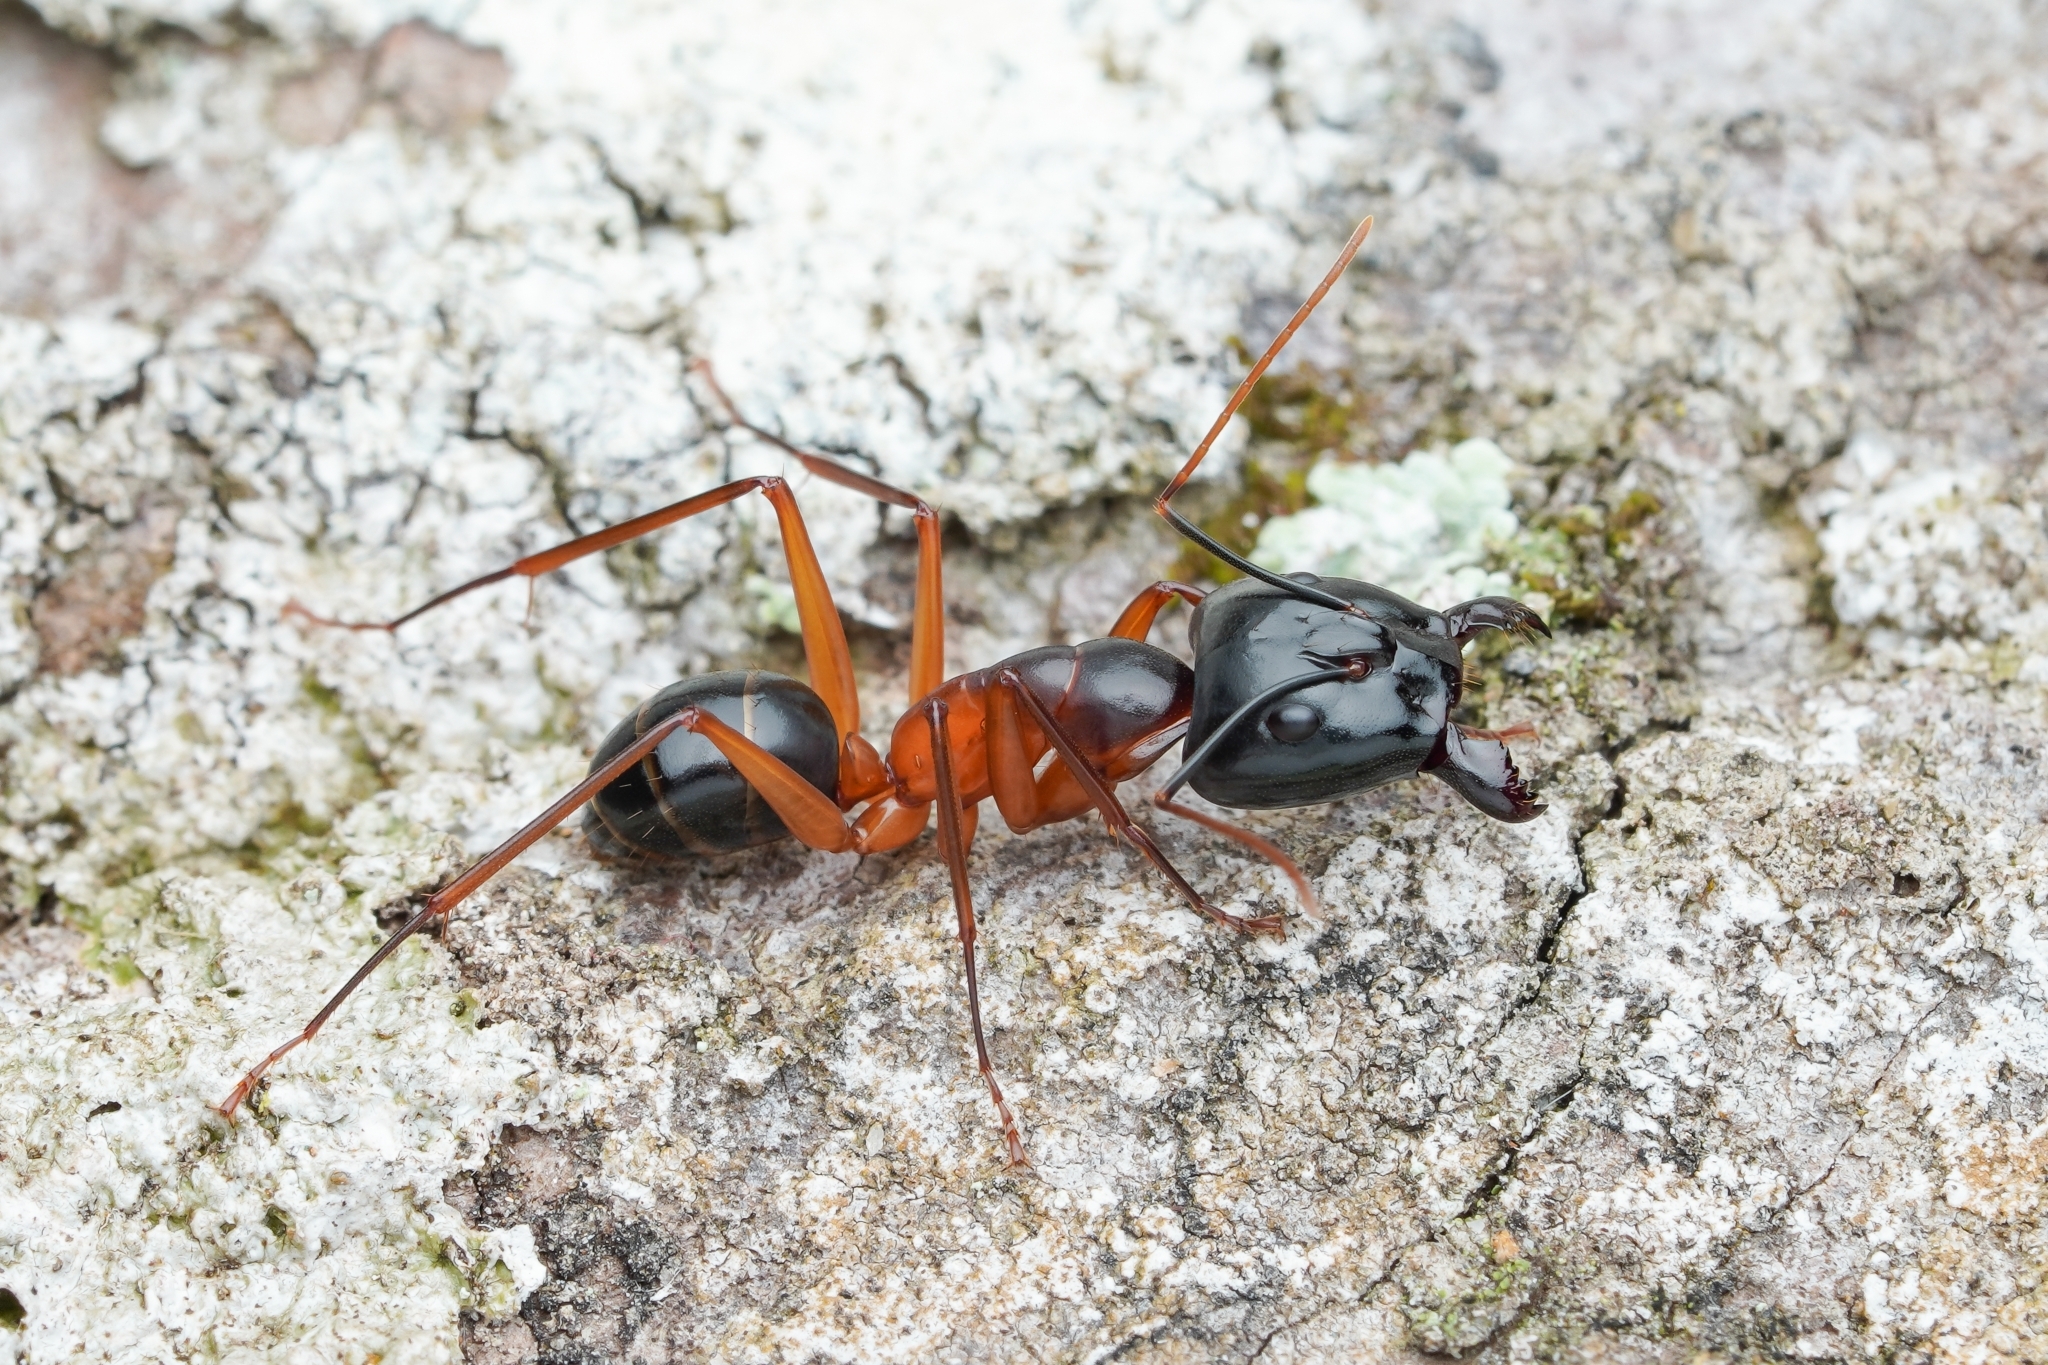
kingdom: Animalia
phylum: Arthropoda
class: Insecta
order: Hymenoptera
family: Formicidae
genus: Camponotus
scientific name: Camponotus festinus
